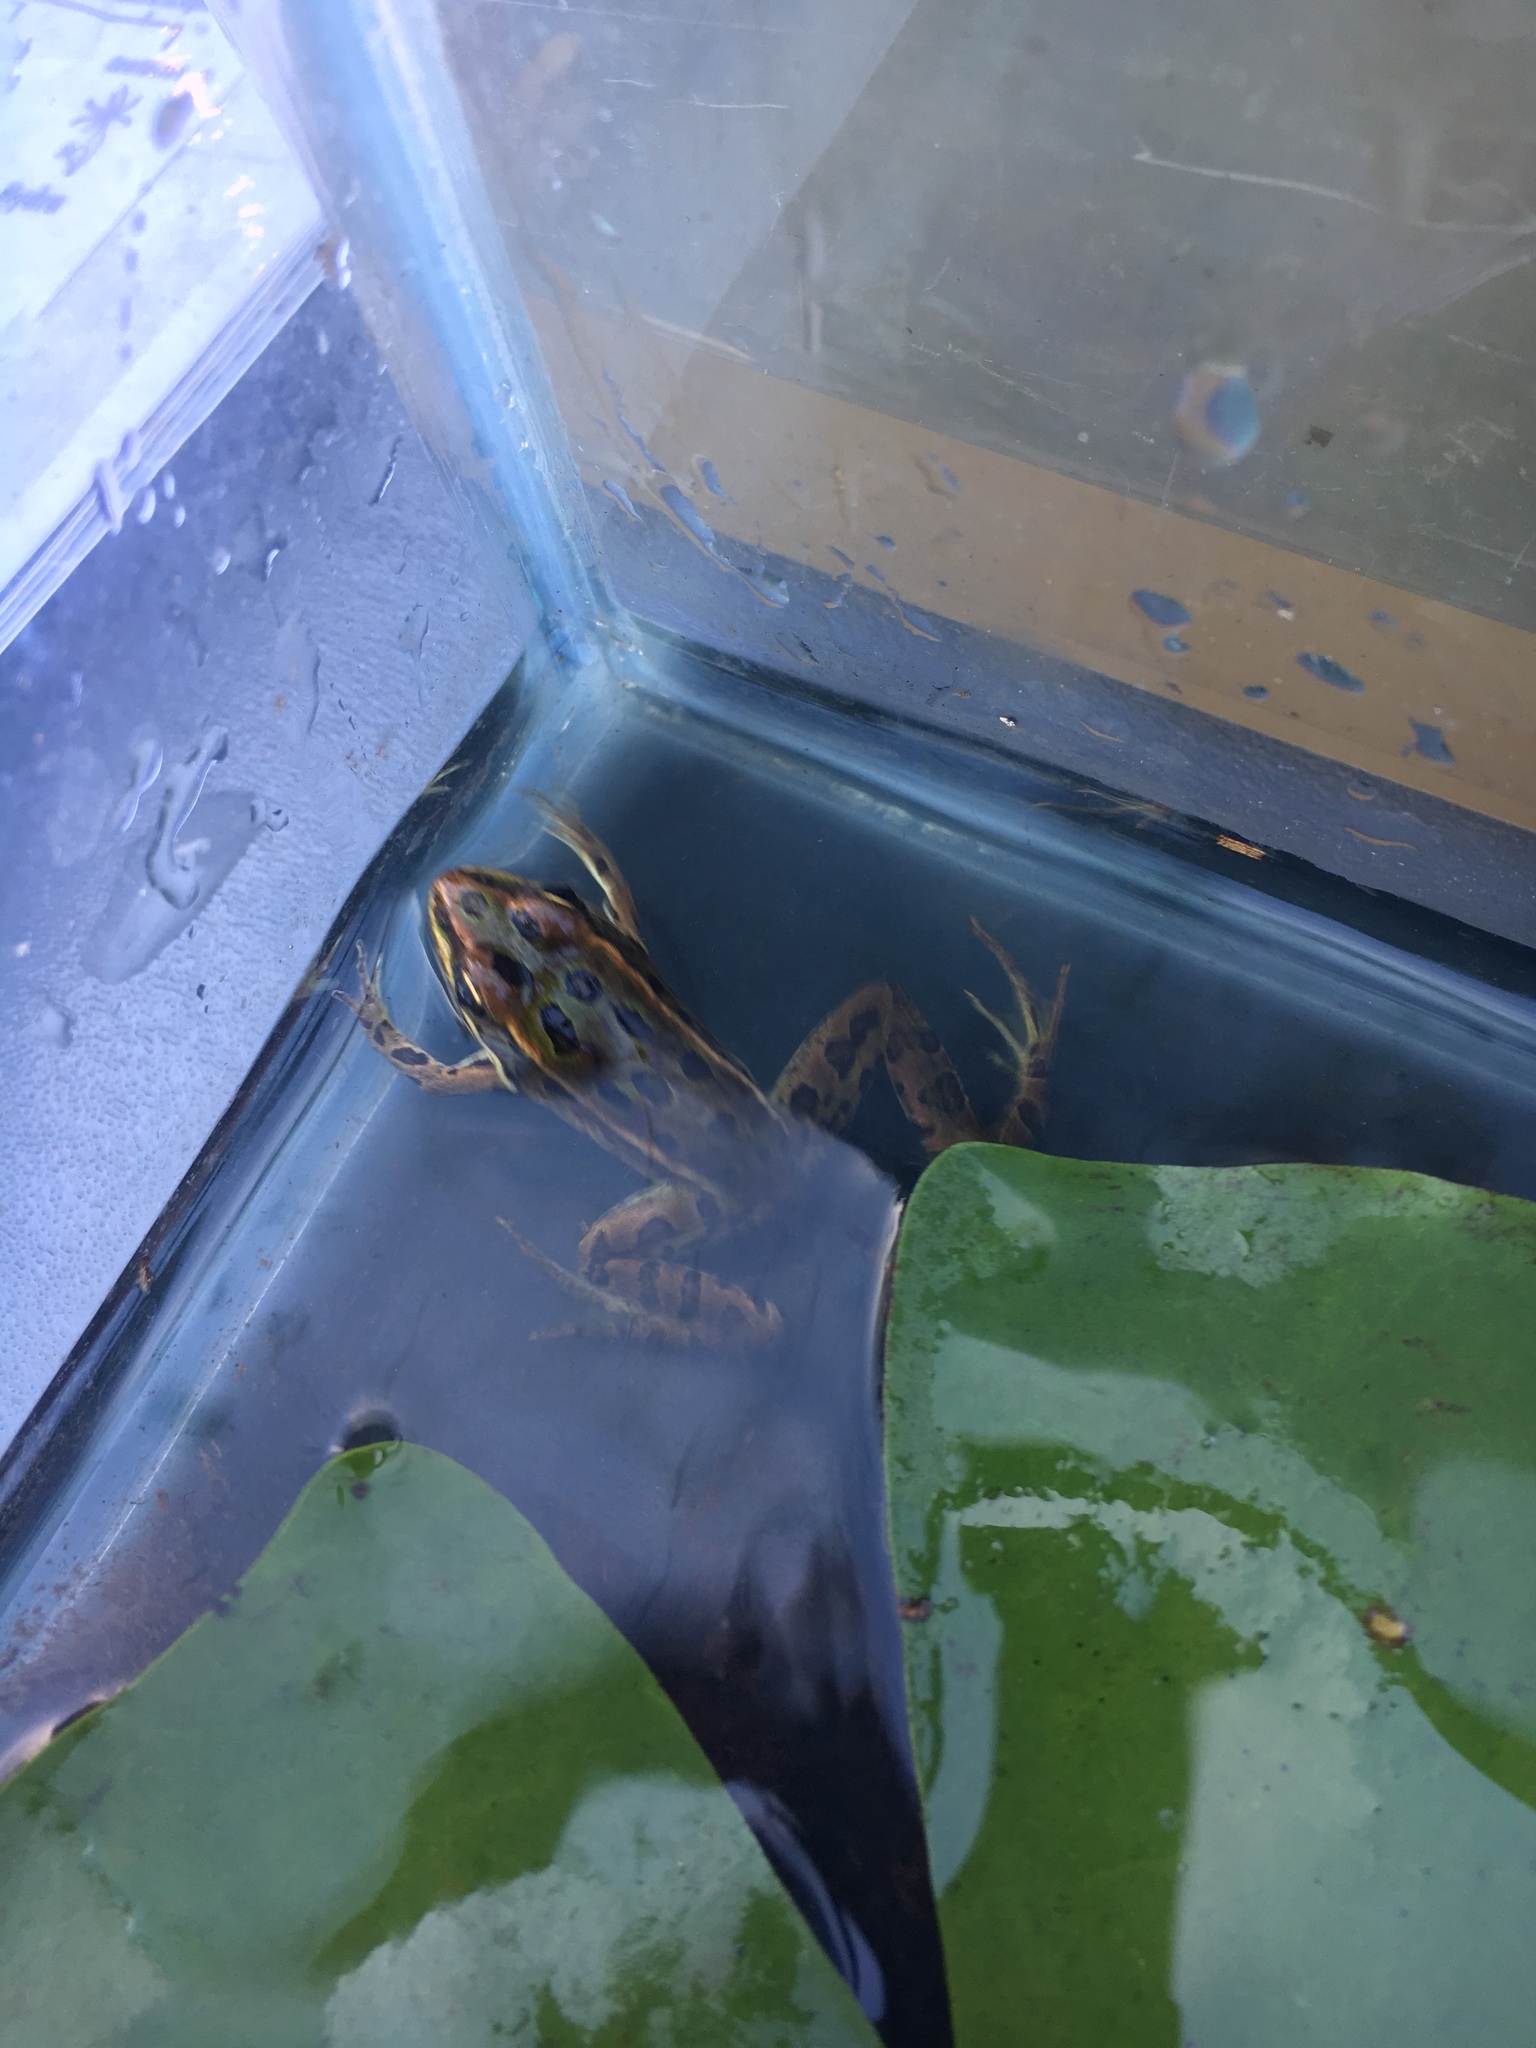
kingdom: Animalia
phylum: Chordata
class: Amphibia
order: Anura
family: Ranidae
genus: Lithobates
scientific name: Lithobates pipiens
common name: Northern leopard frog
